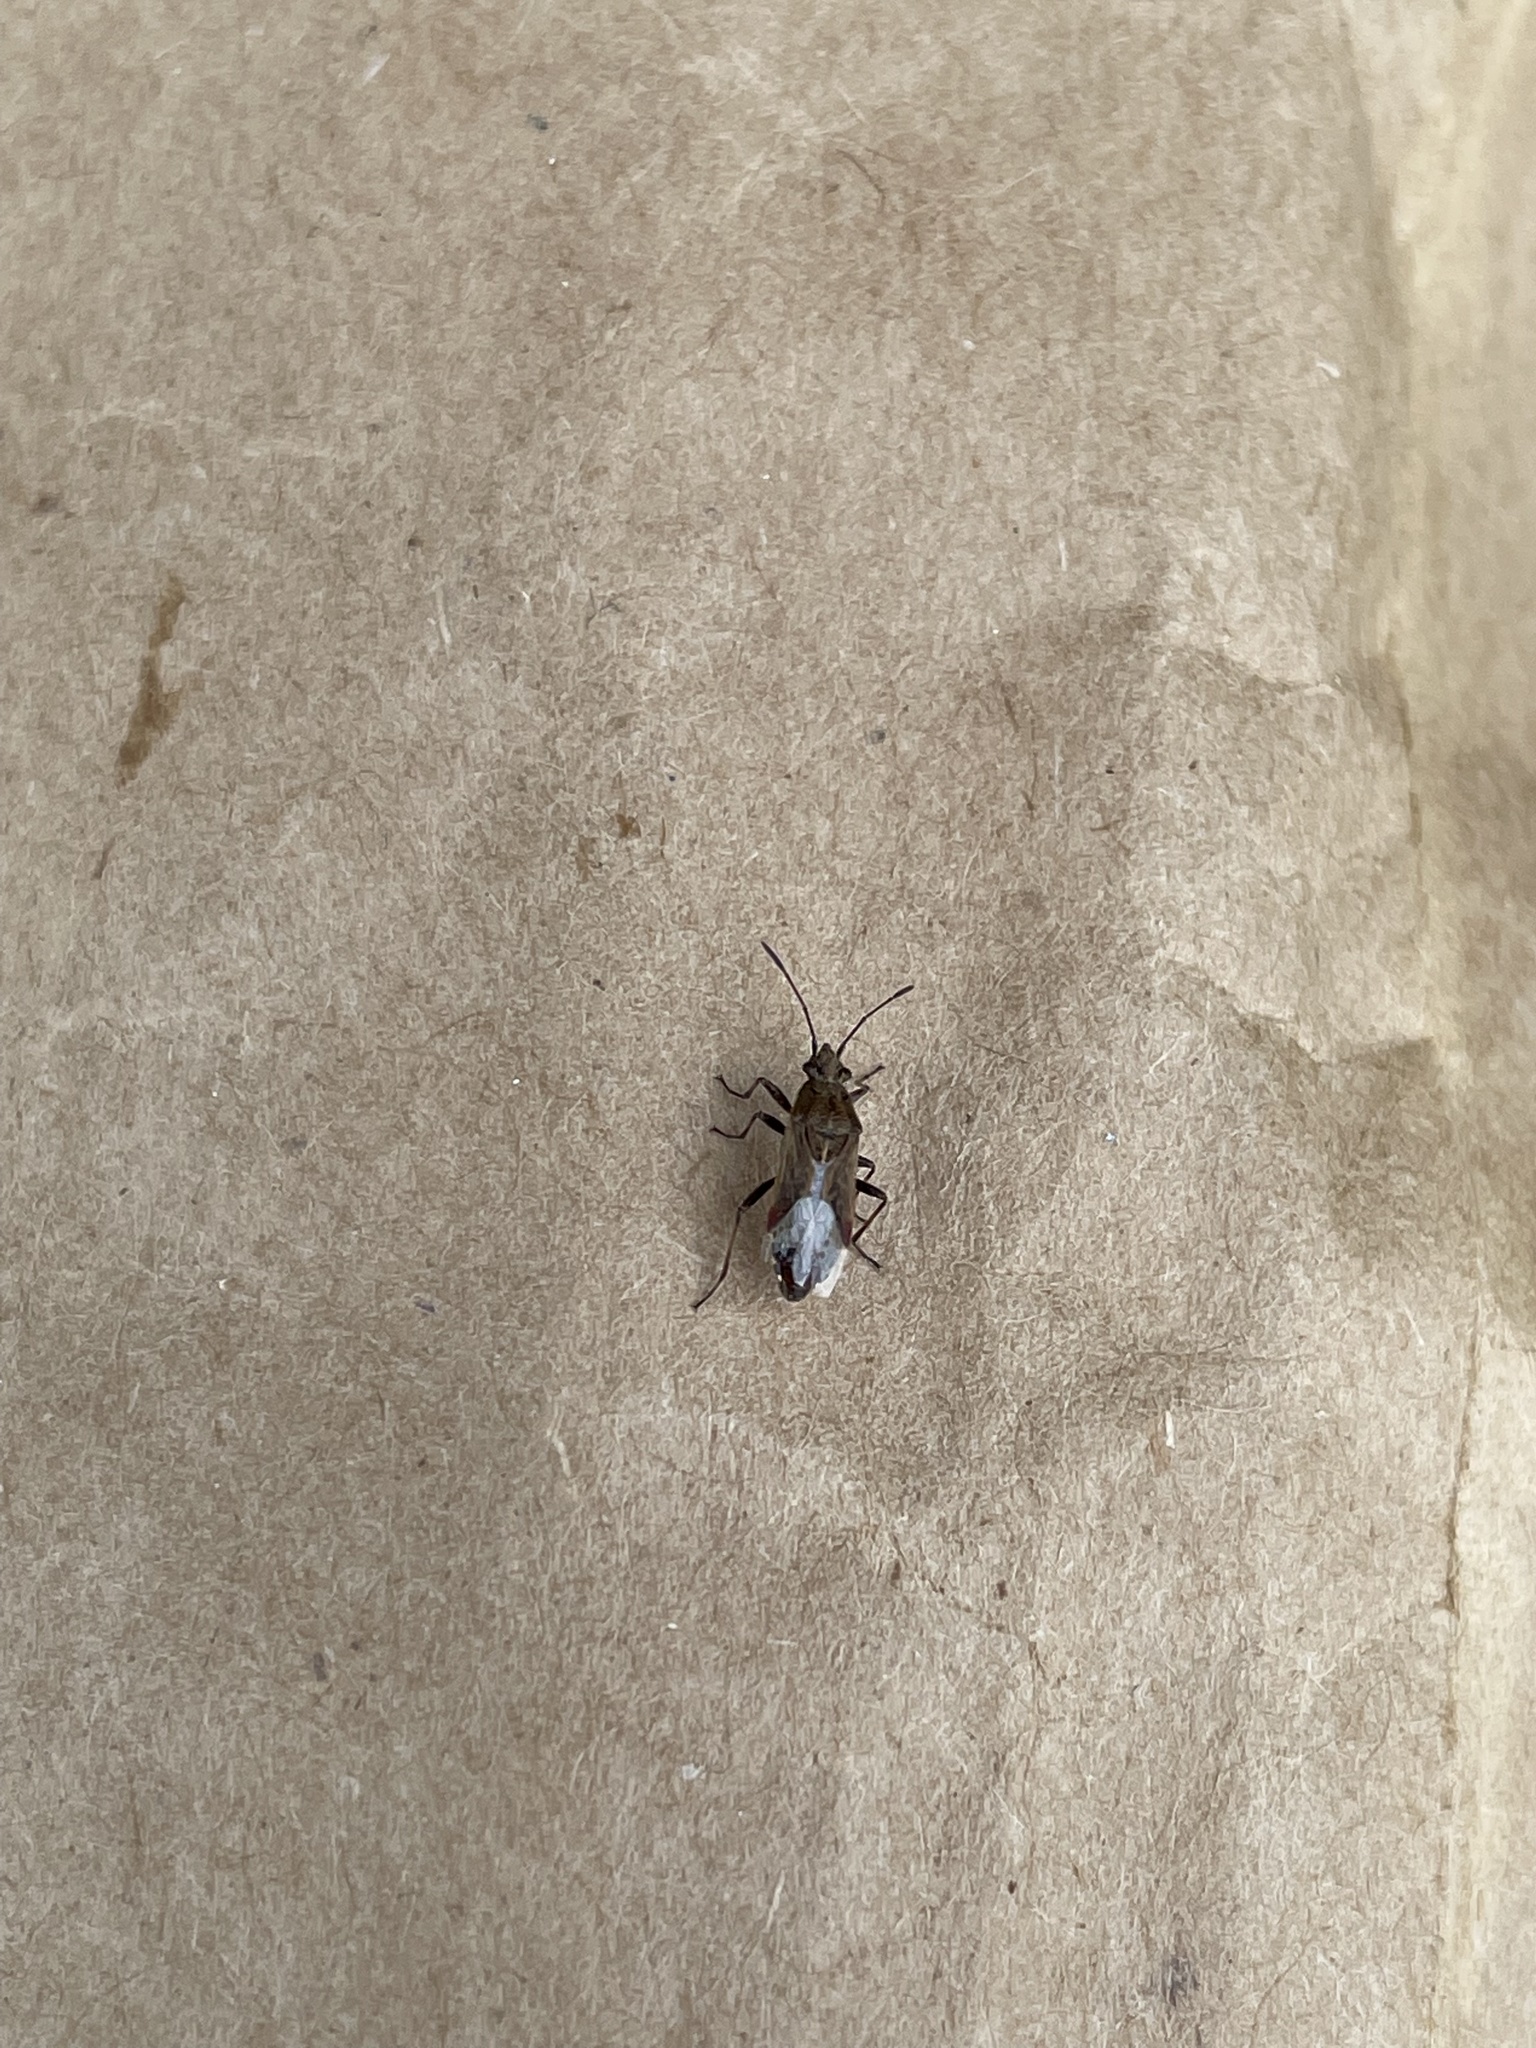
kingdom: Animalia
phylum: Arthropoda
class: Insecta
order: Hemiptera
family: Lygaeidae
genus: Neortholomus
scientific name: Neortholomus scolopax
